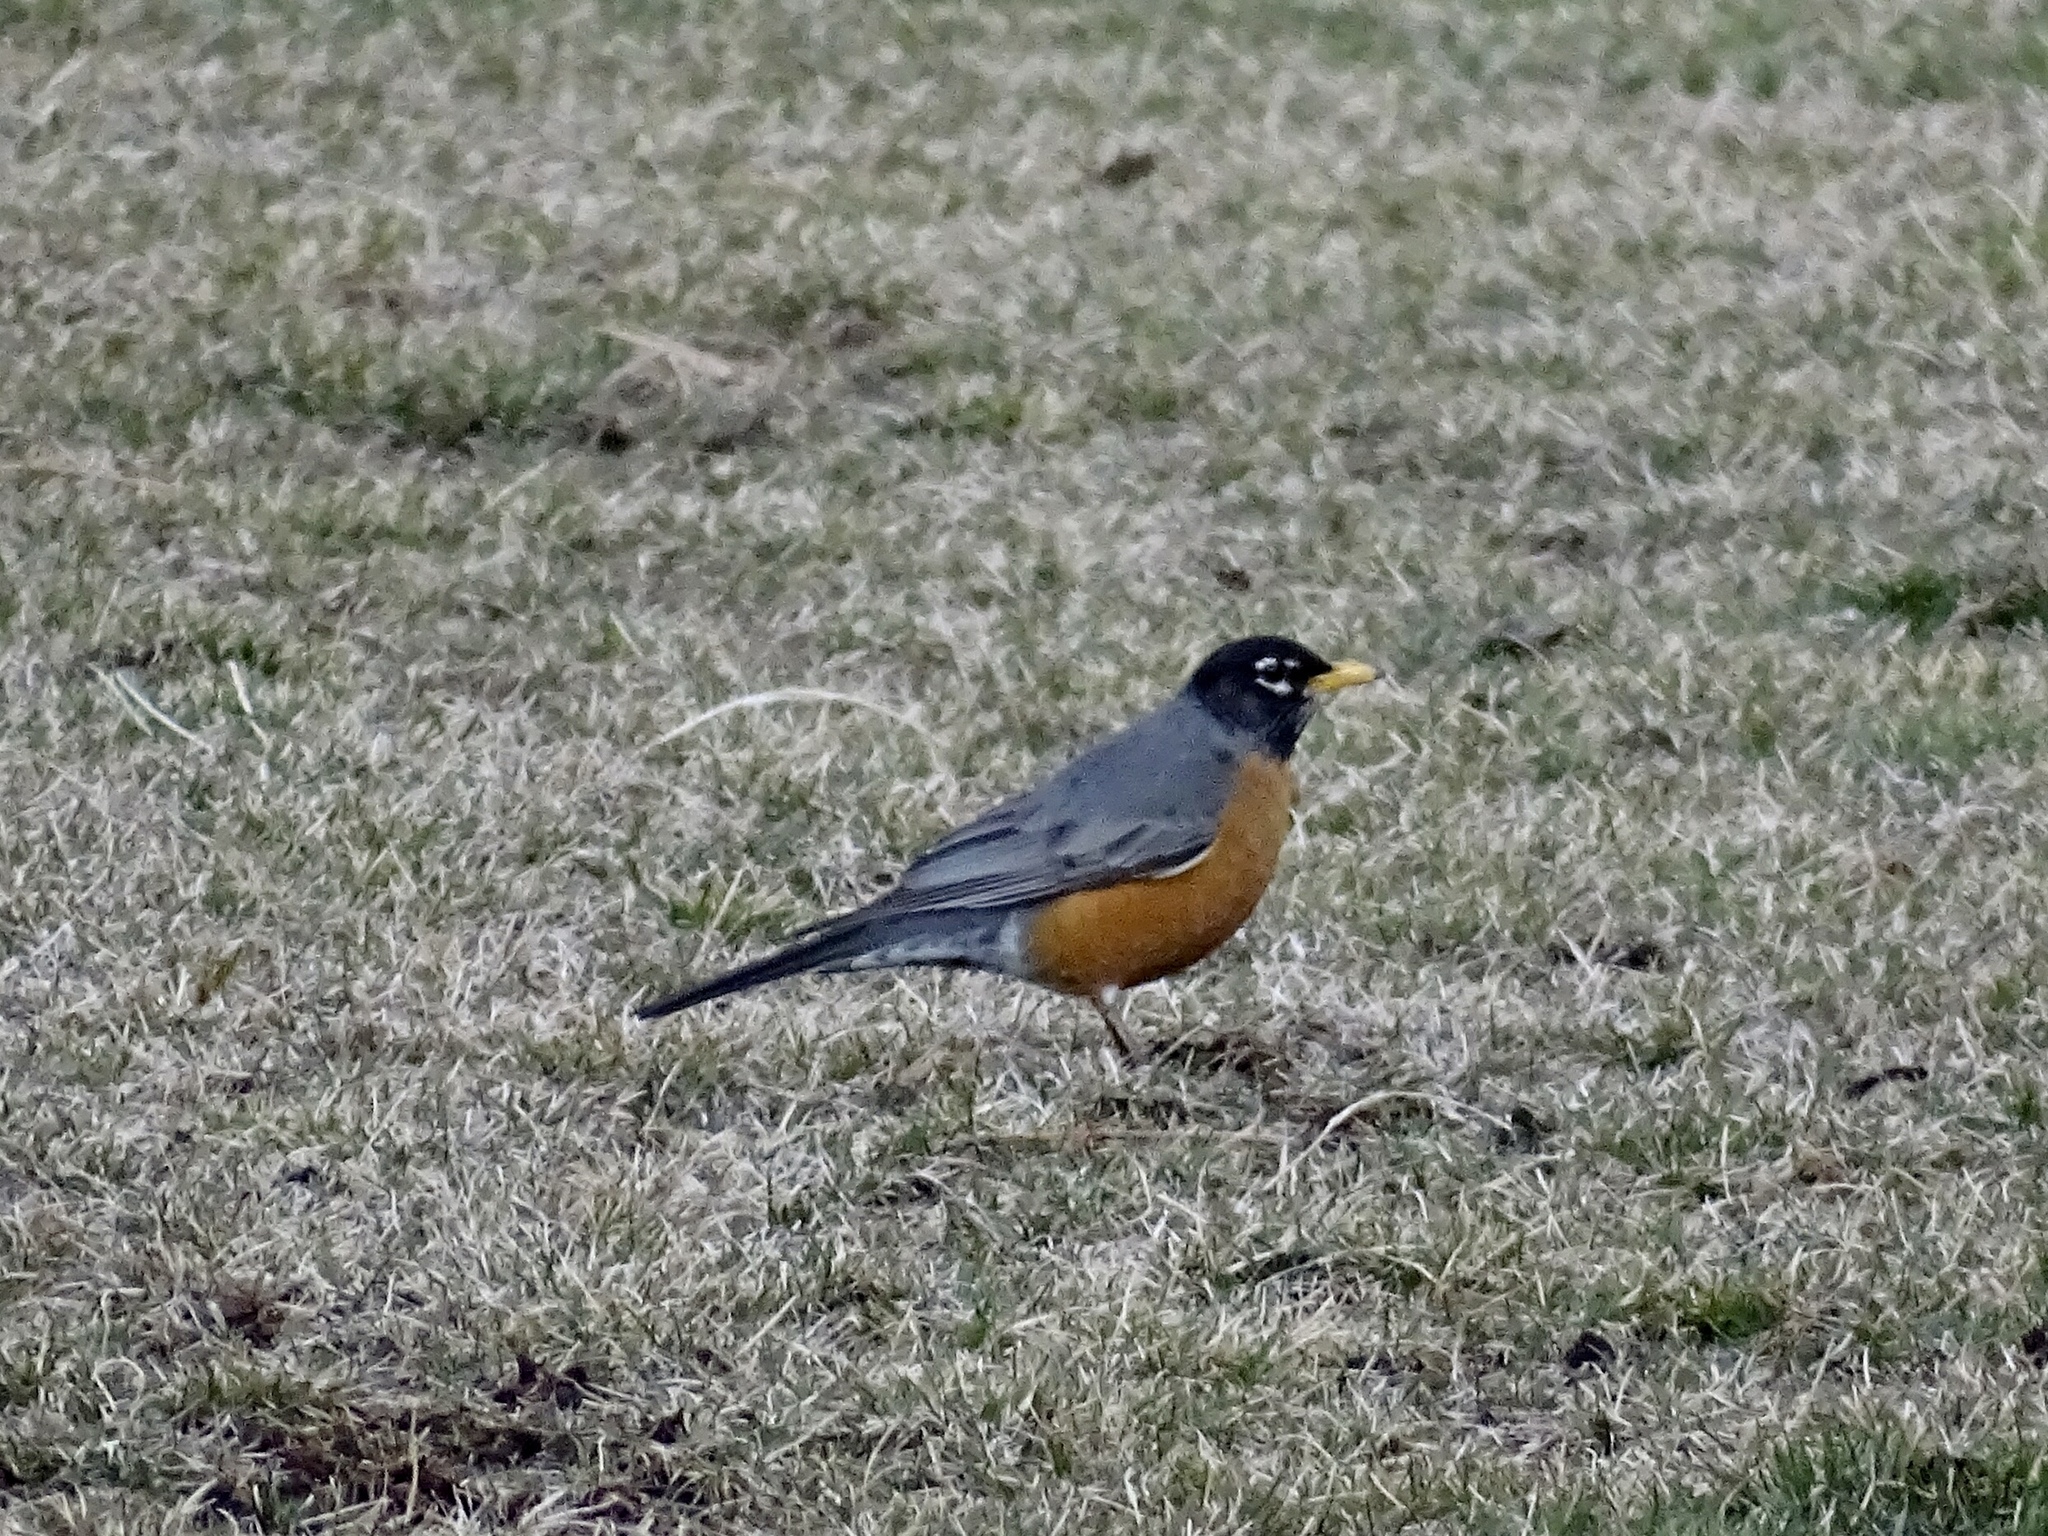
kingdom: Animalia
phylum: Chordata
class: Aves
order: Passeriformes
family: Turdidae
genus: Turdus
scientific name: Turdus migratorius
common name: American robin
